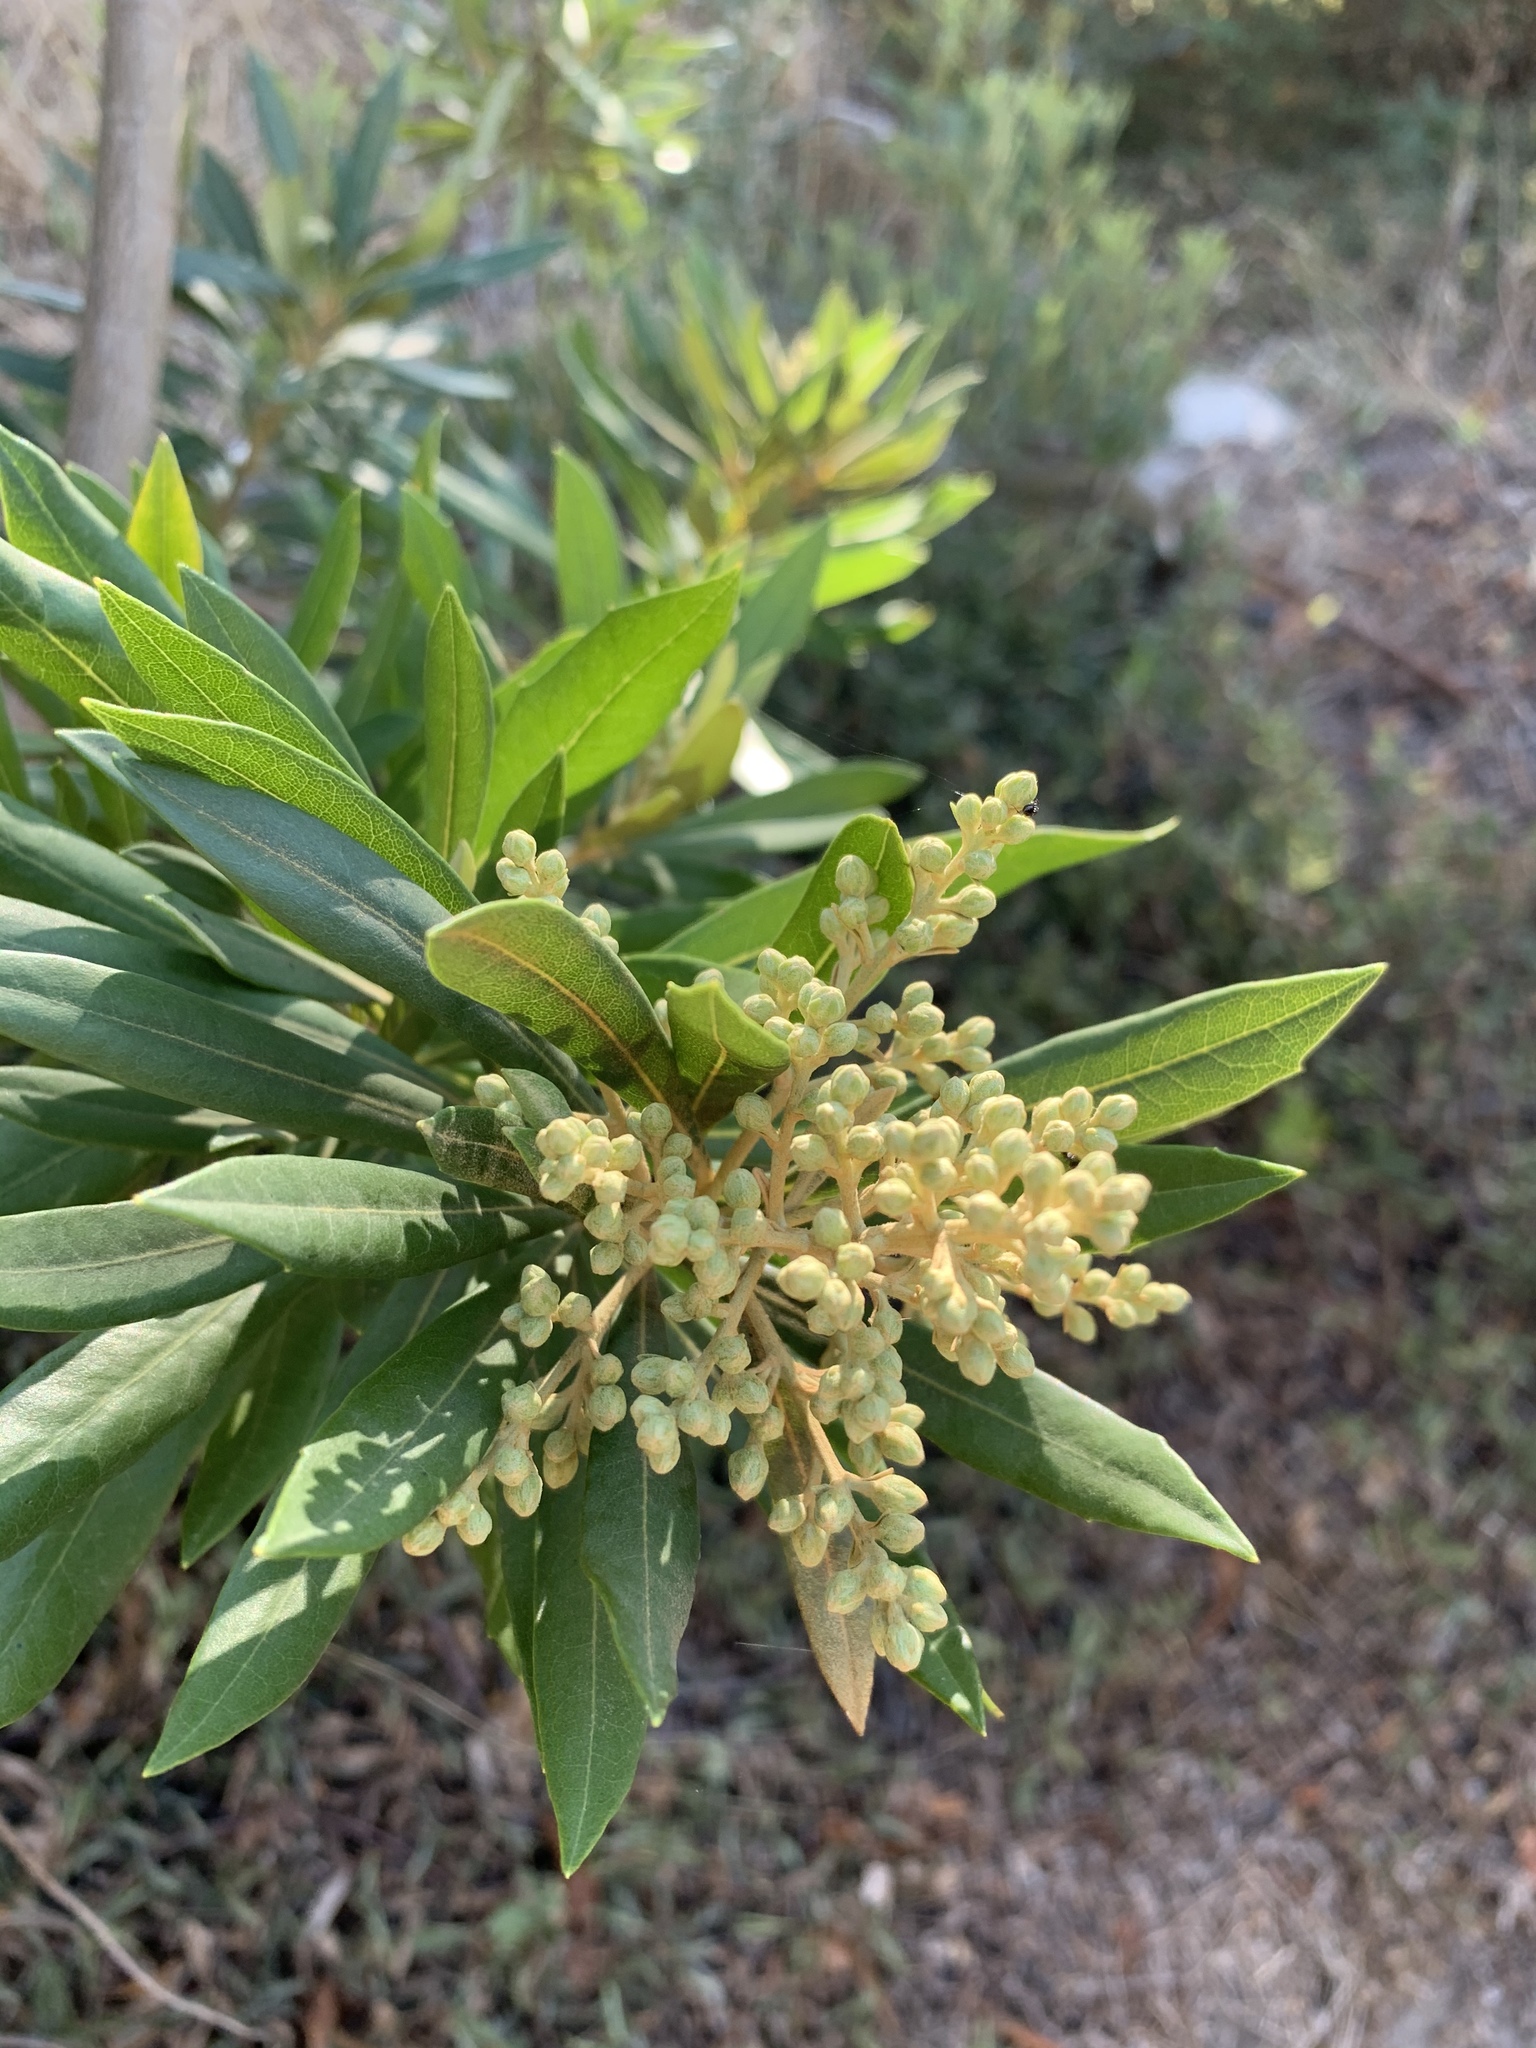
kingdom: Plantae
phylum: Tracheophyta
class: Magnoliopsida
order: Asterales
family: Asteraceae
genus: Brachylaena
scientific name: Brachylaena neriifolia
